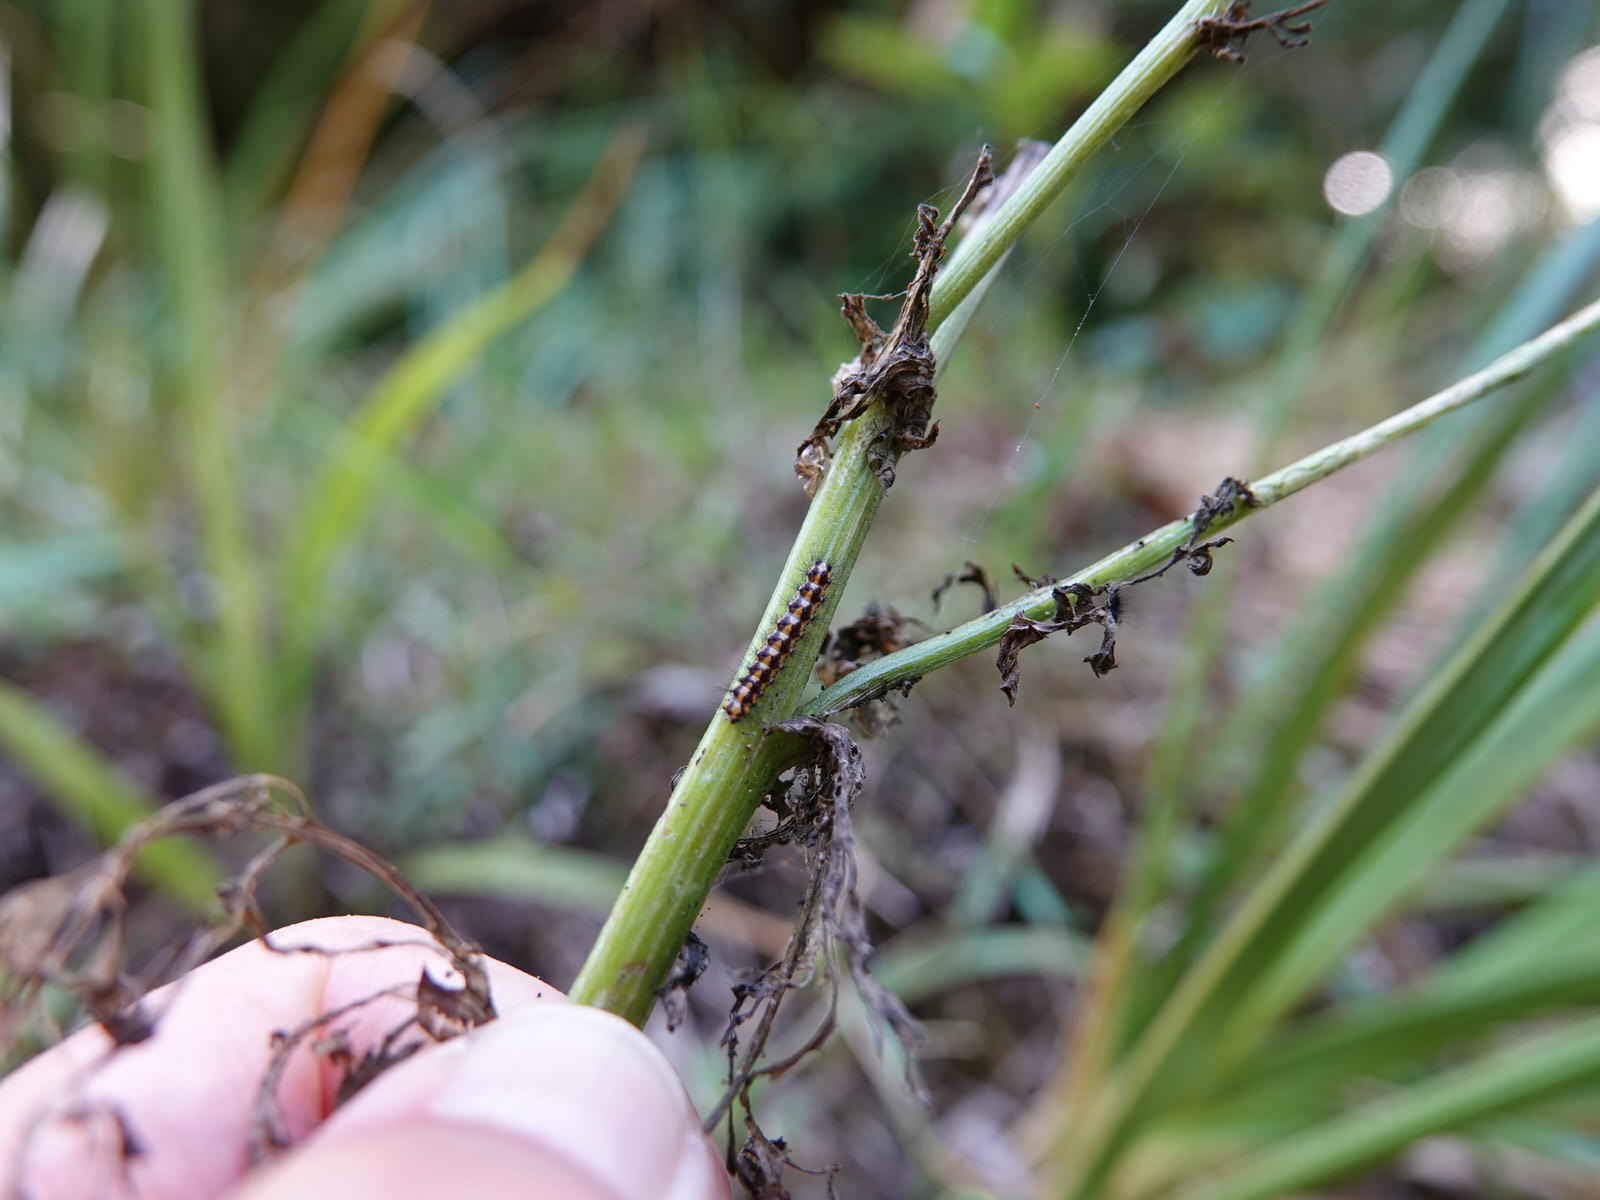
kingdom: Animalia
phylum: Arthropoda
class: Insecta
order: Lepidoptera
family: Erebidae
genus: Nyctemera
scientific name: Nyctemera annulatum
